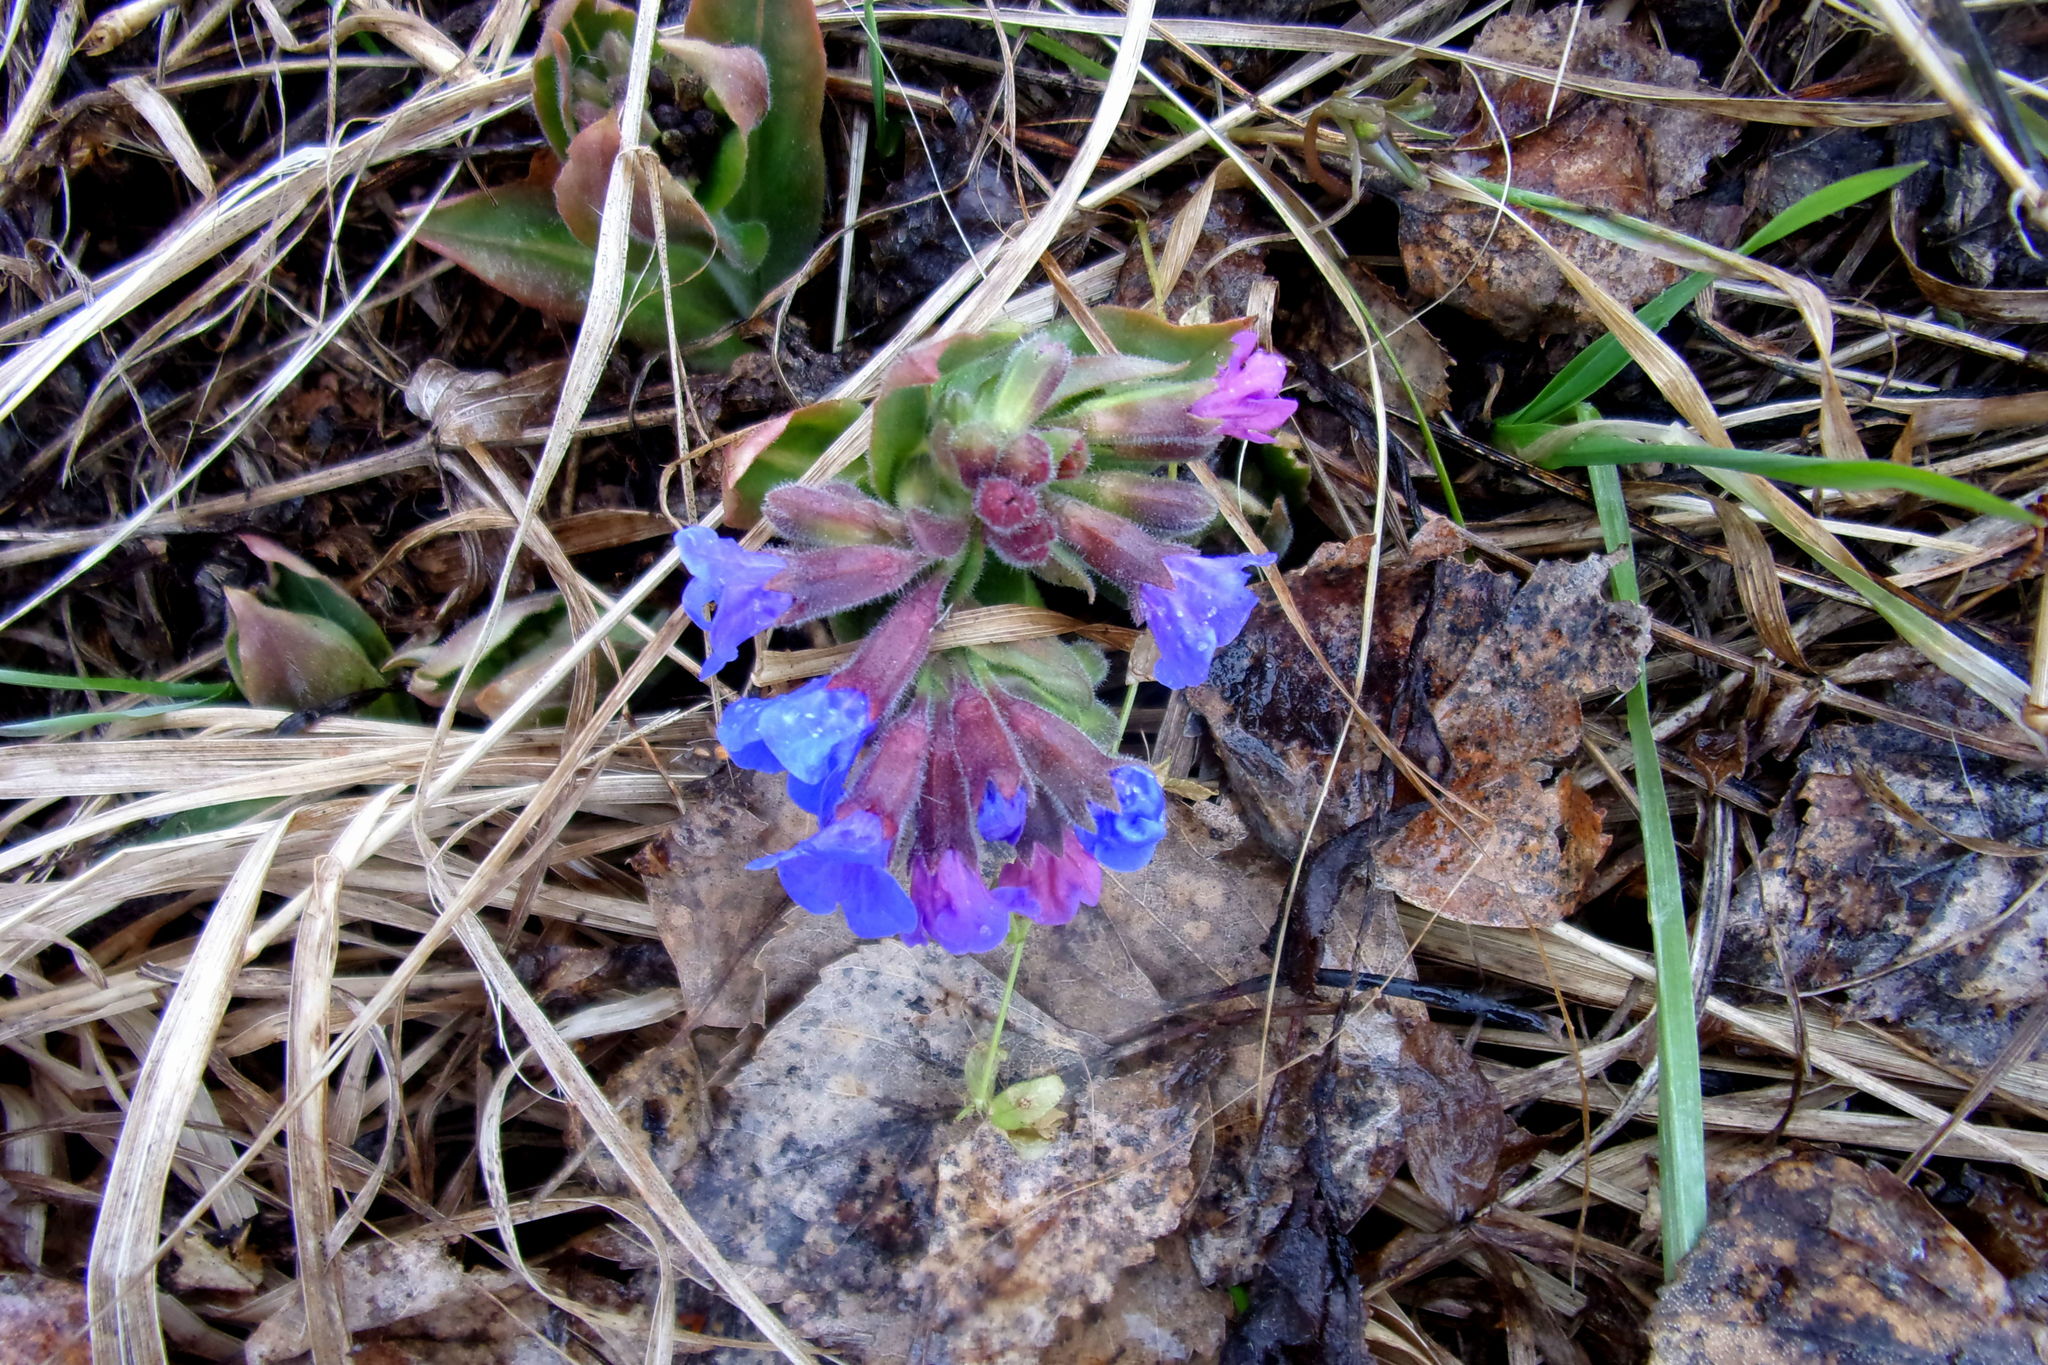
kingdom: Plantae
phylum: Tracheophyta
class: Magnoliopsida
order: Boraginales
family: Boraginaceae
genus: Pulmonaria
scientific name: Pulmonaria mollis
